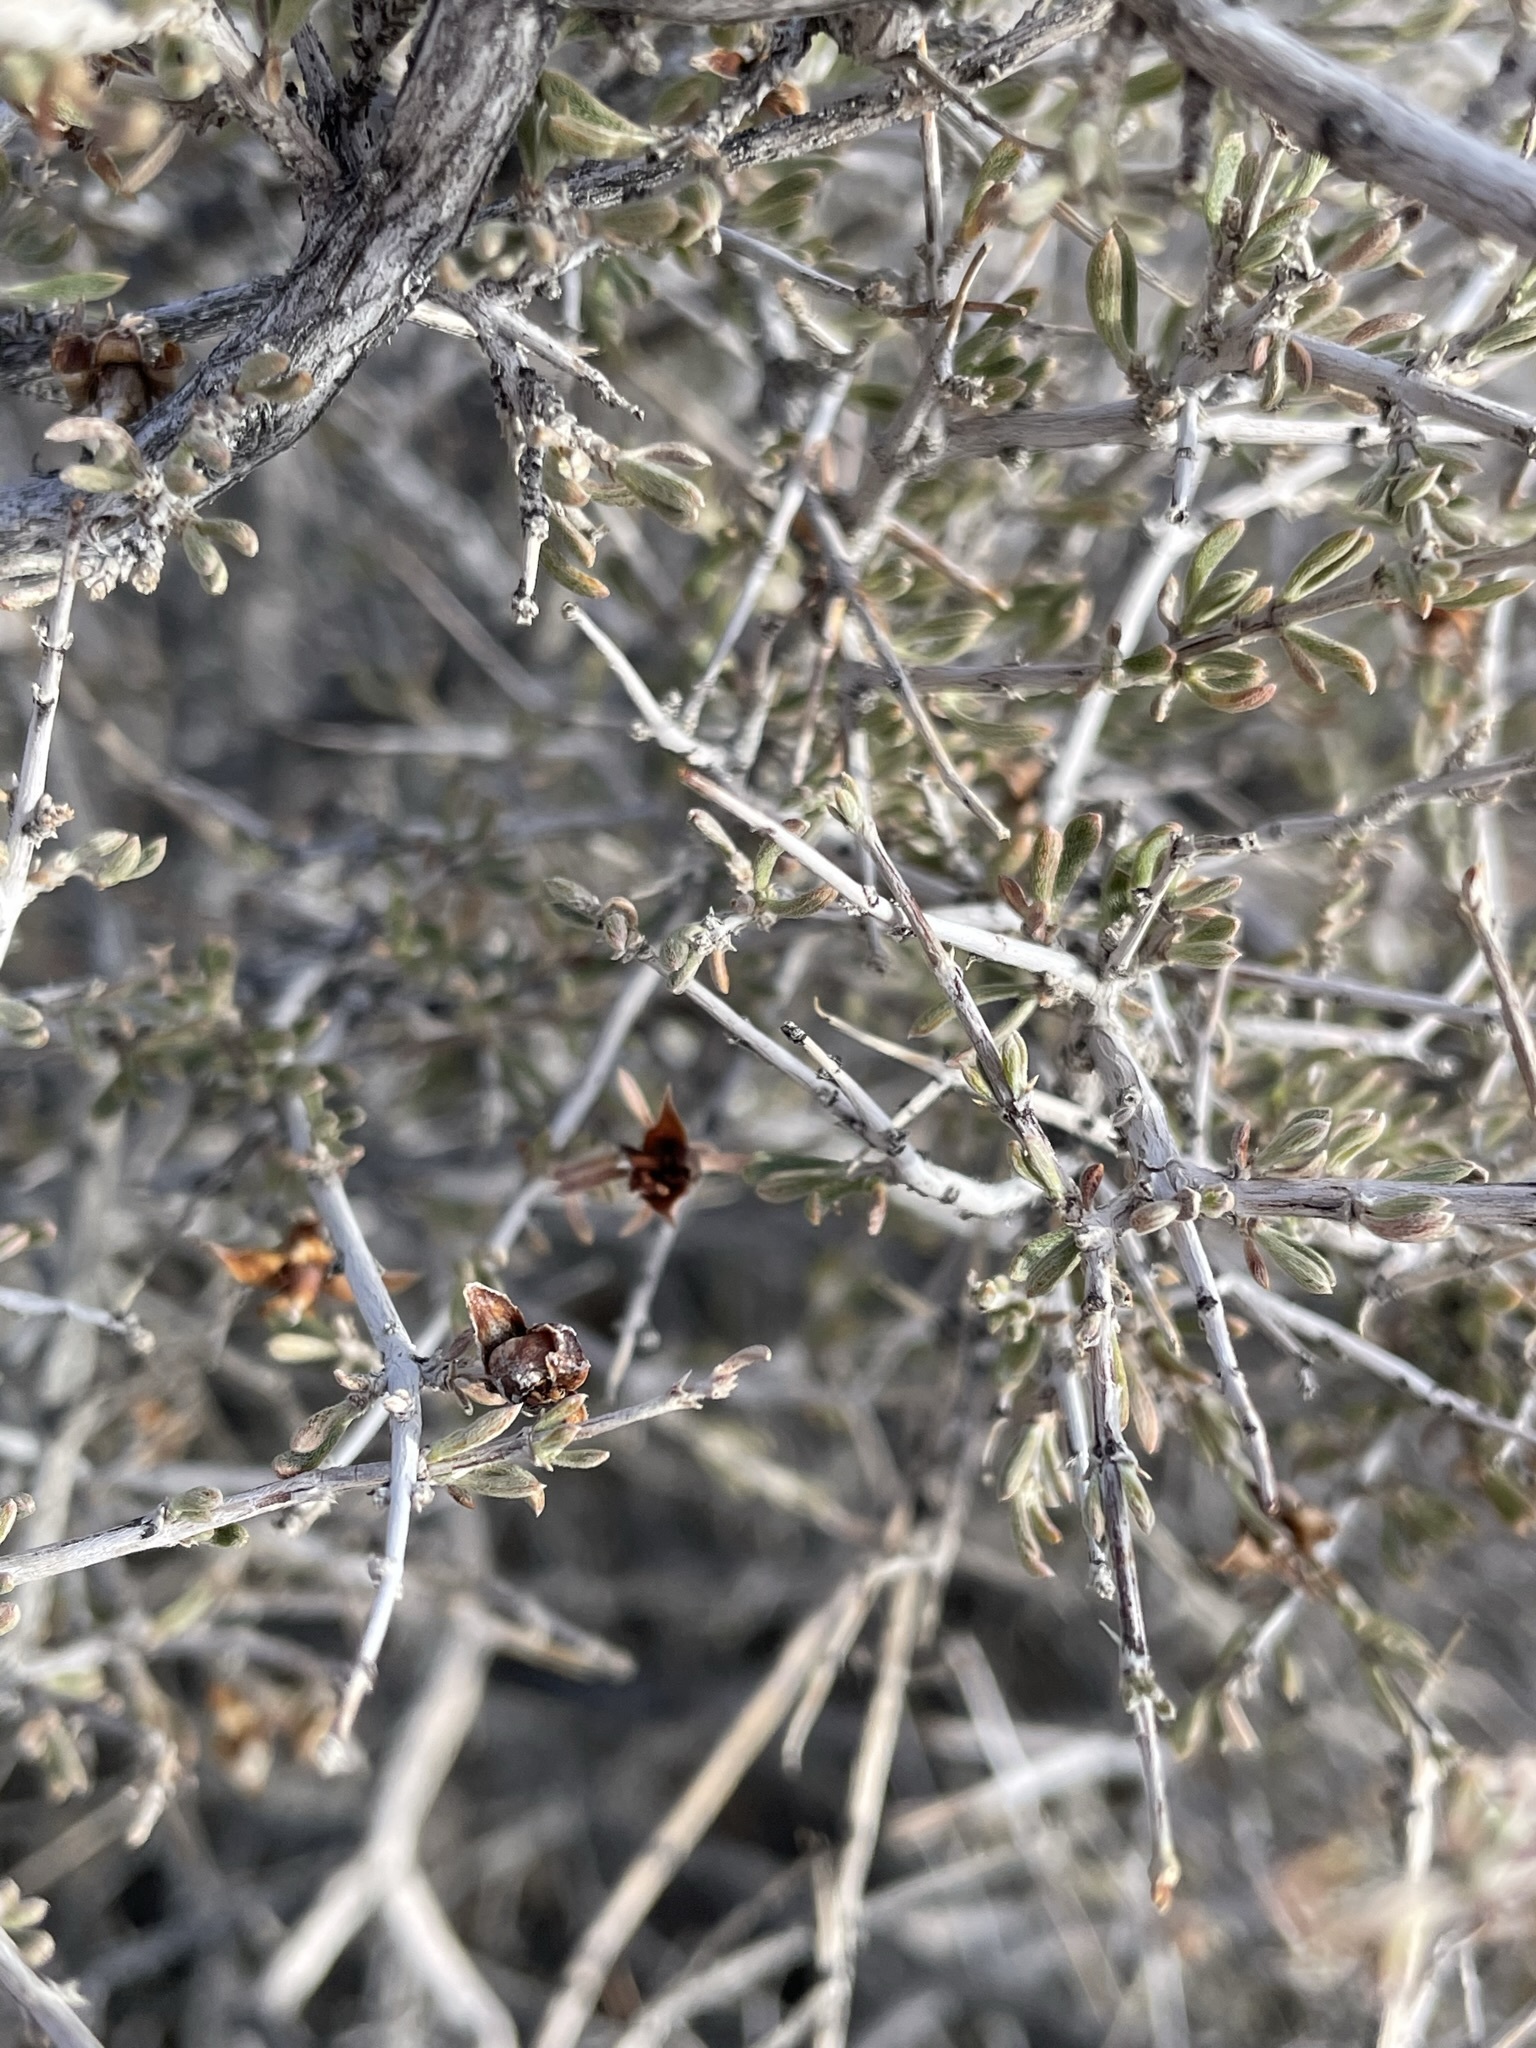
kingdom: Plantae
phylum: Tracheophyta
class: Magnoliopsida
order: Rosales
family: Rosaceae
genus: Coleogyne
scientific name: Coleogyne ramosissima
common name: Blackbrush
